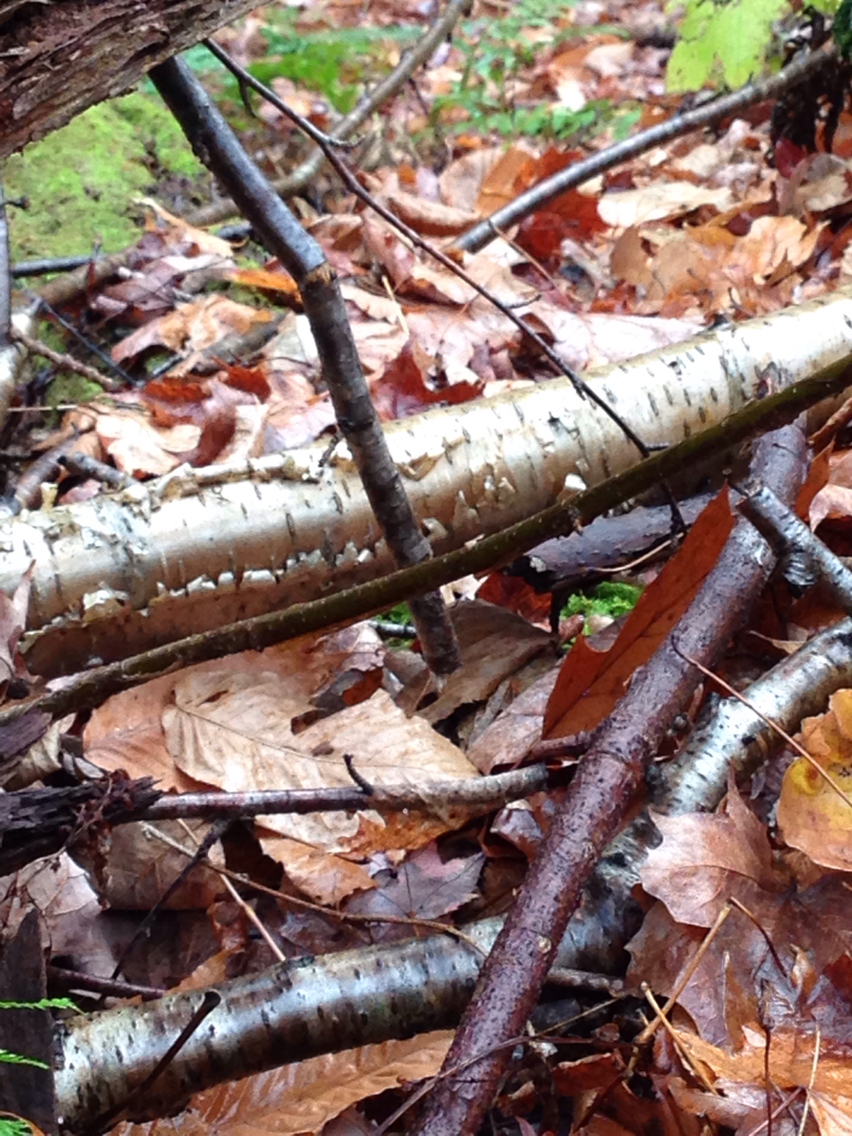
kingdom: Plantae
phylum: Tracheophyta
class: Magnoliopsida
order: Fagales
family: Betulaceae
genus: Betula
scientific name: Betula alleghaniensis
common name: Yellow birch
